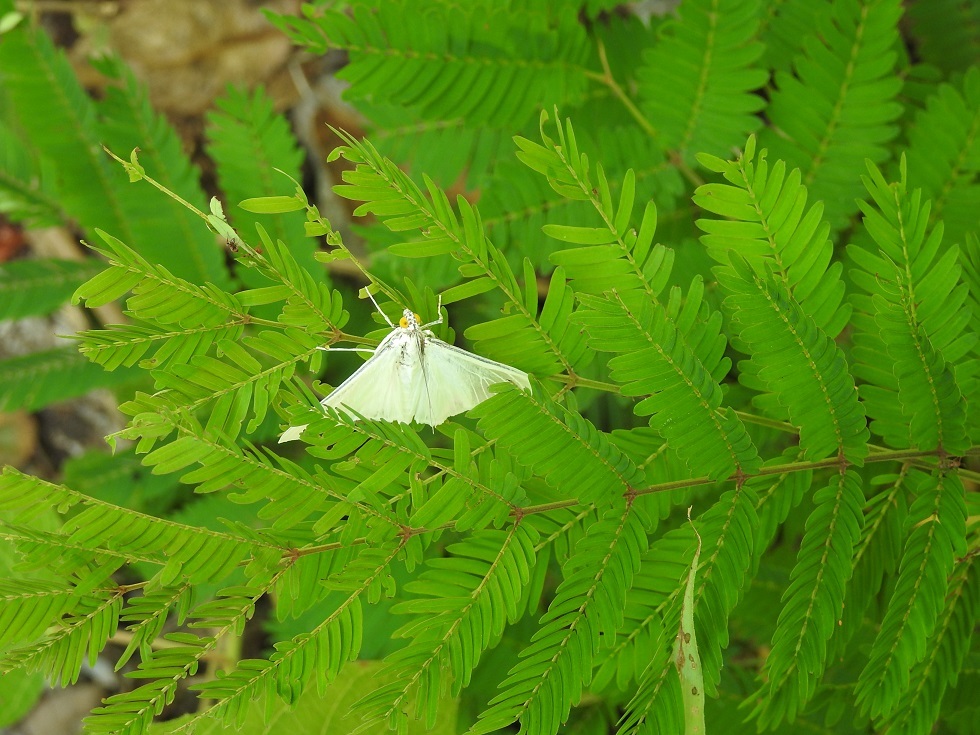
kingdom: Animalia
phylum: Arthropoda
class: Insecta
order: Lepidoptera
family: Crambidae
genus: Palpita
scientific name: Palpita flegia
